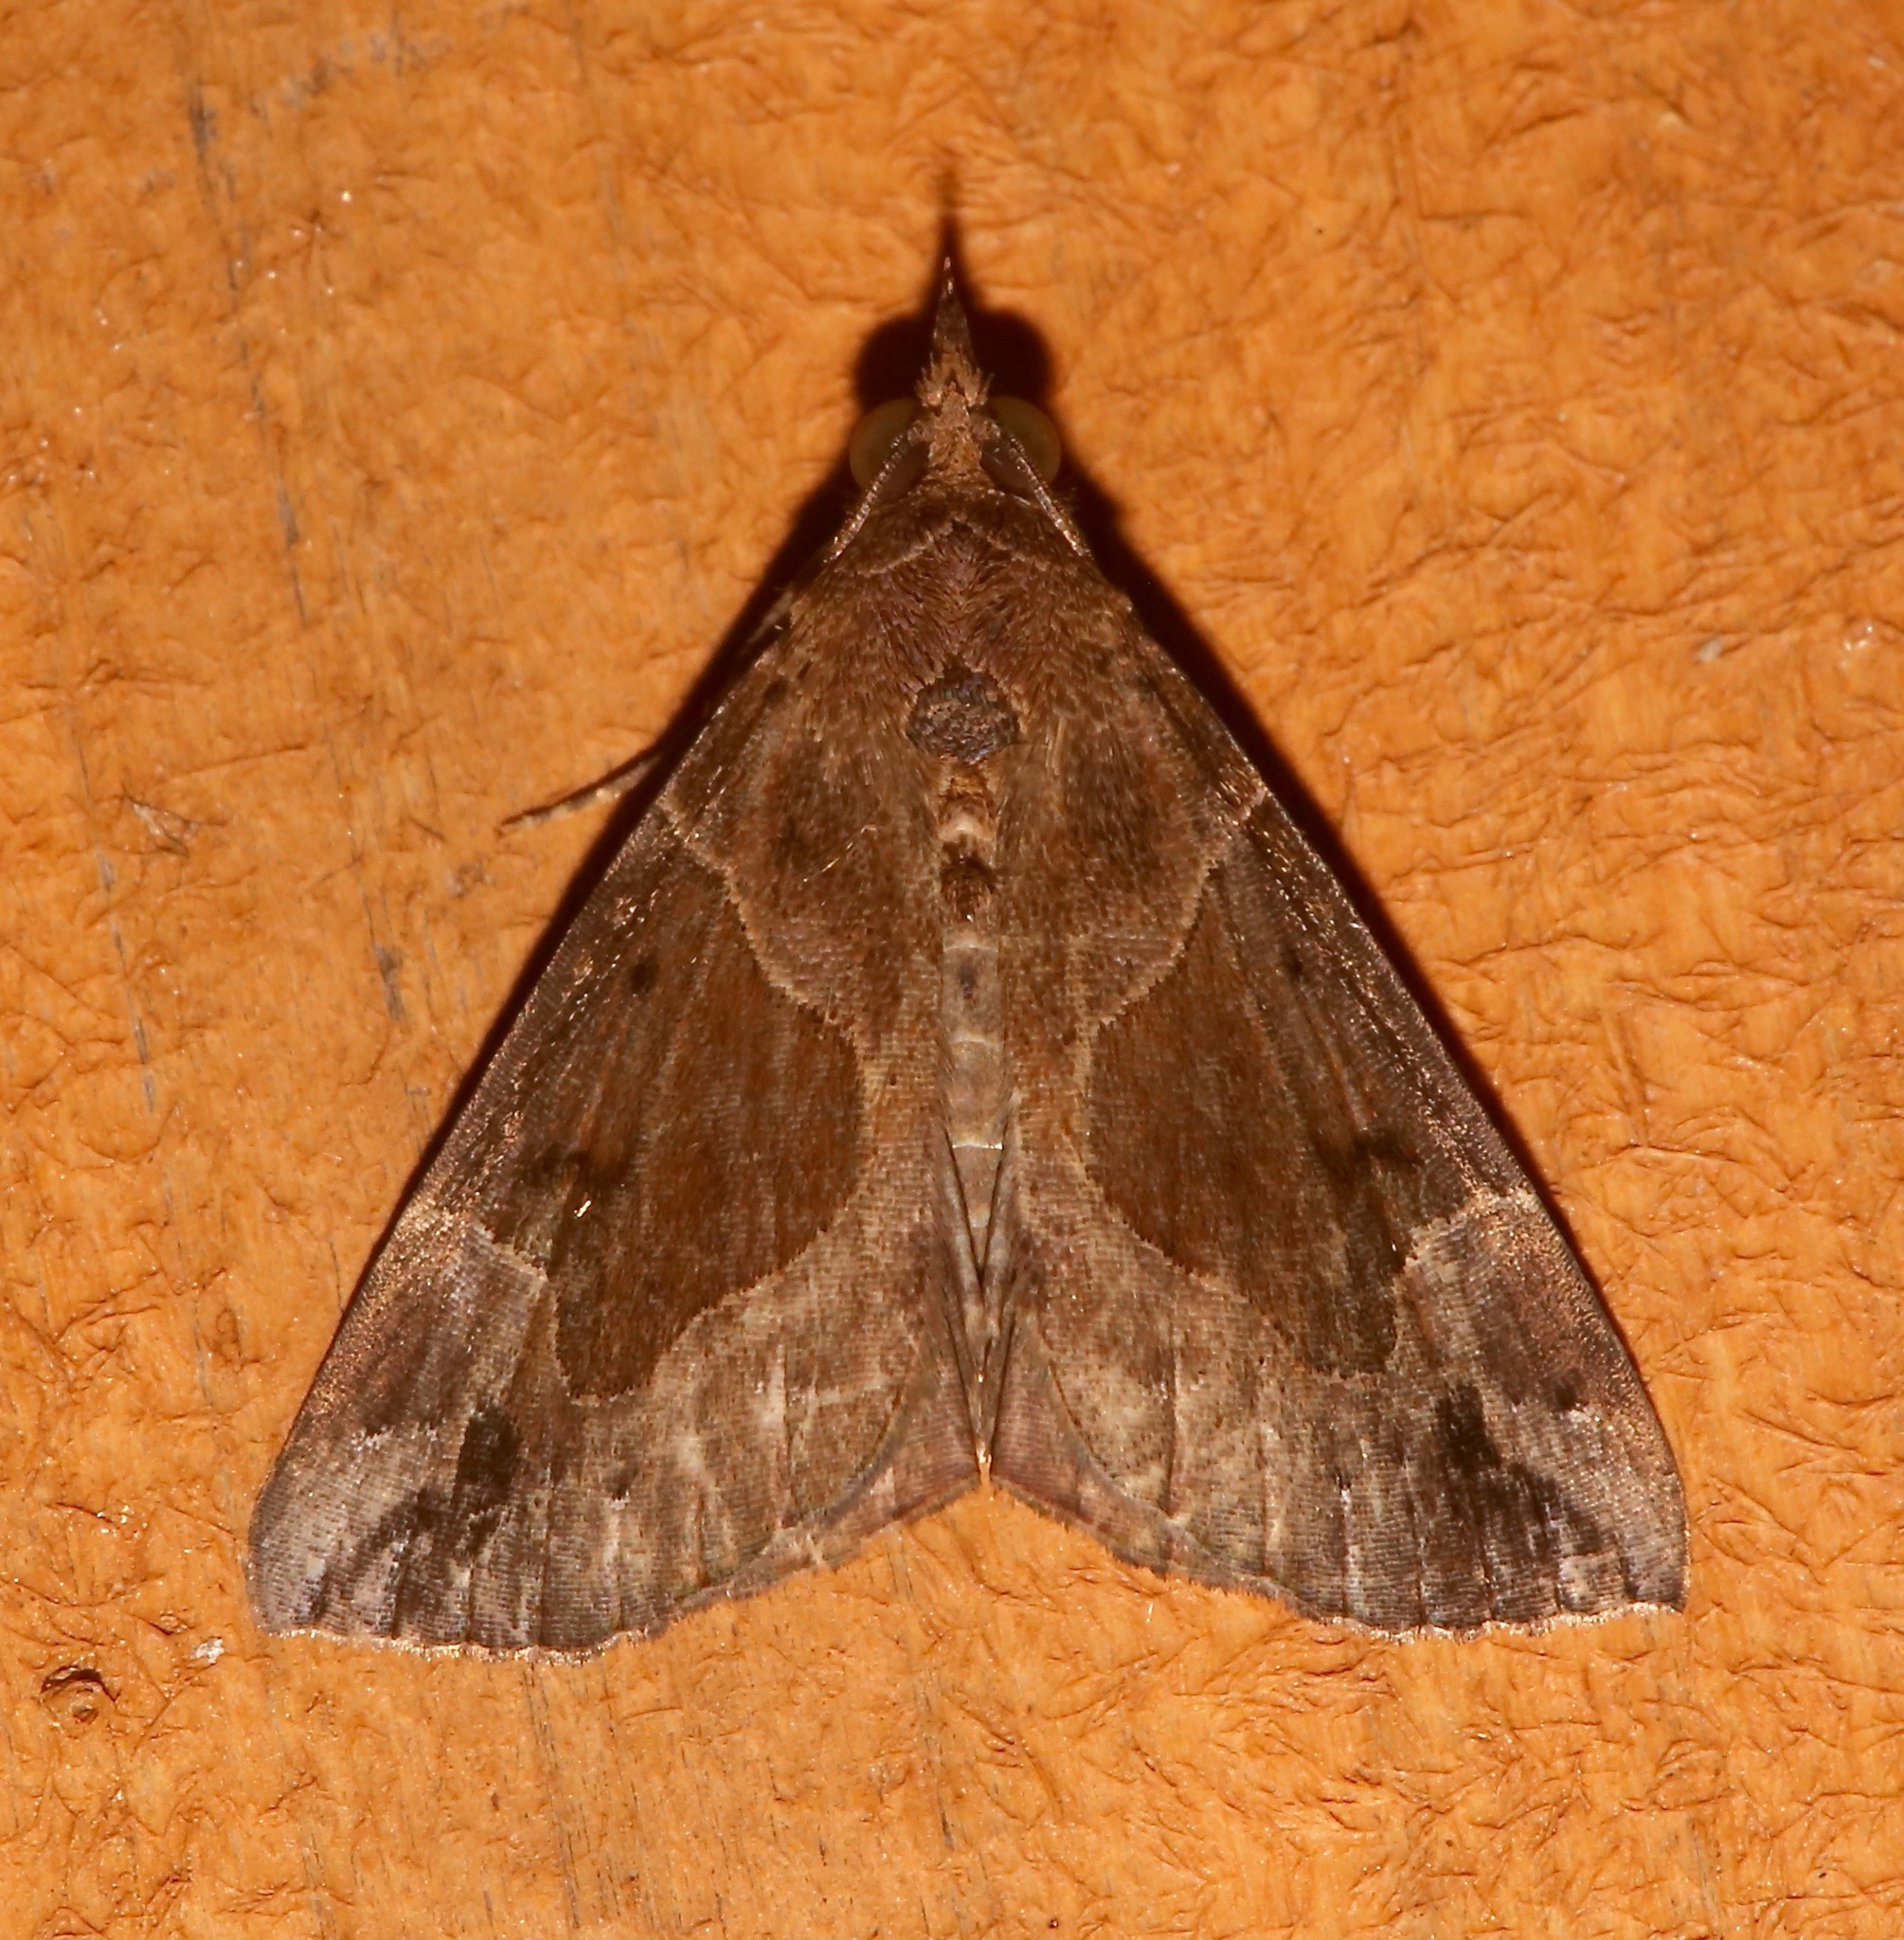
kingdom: Animalia
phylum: Arthropoda
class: Insecta
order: Lepidoptera
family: Erebidae
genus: Hypena
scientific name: Hypena manalis
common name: Flowing-line bomolocha moth
